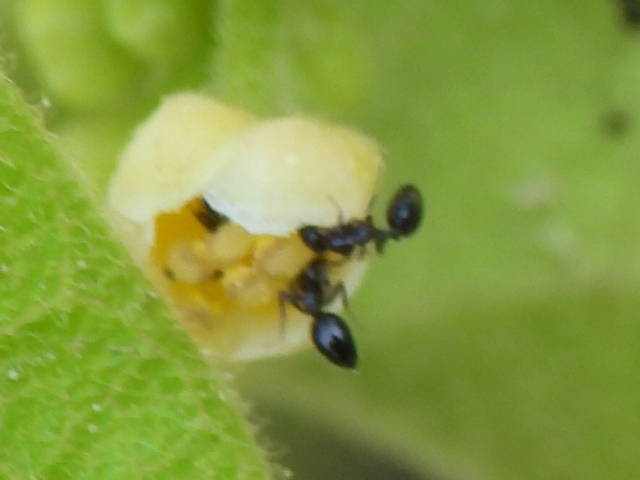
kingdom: Animalia
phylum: Arthropoda
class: Insecta
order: Hymenoptera
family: Formicidae
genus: Monomorium
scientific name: Monomorium
